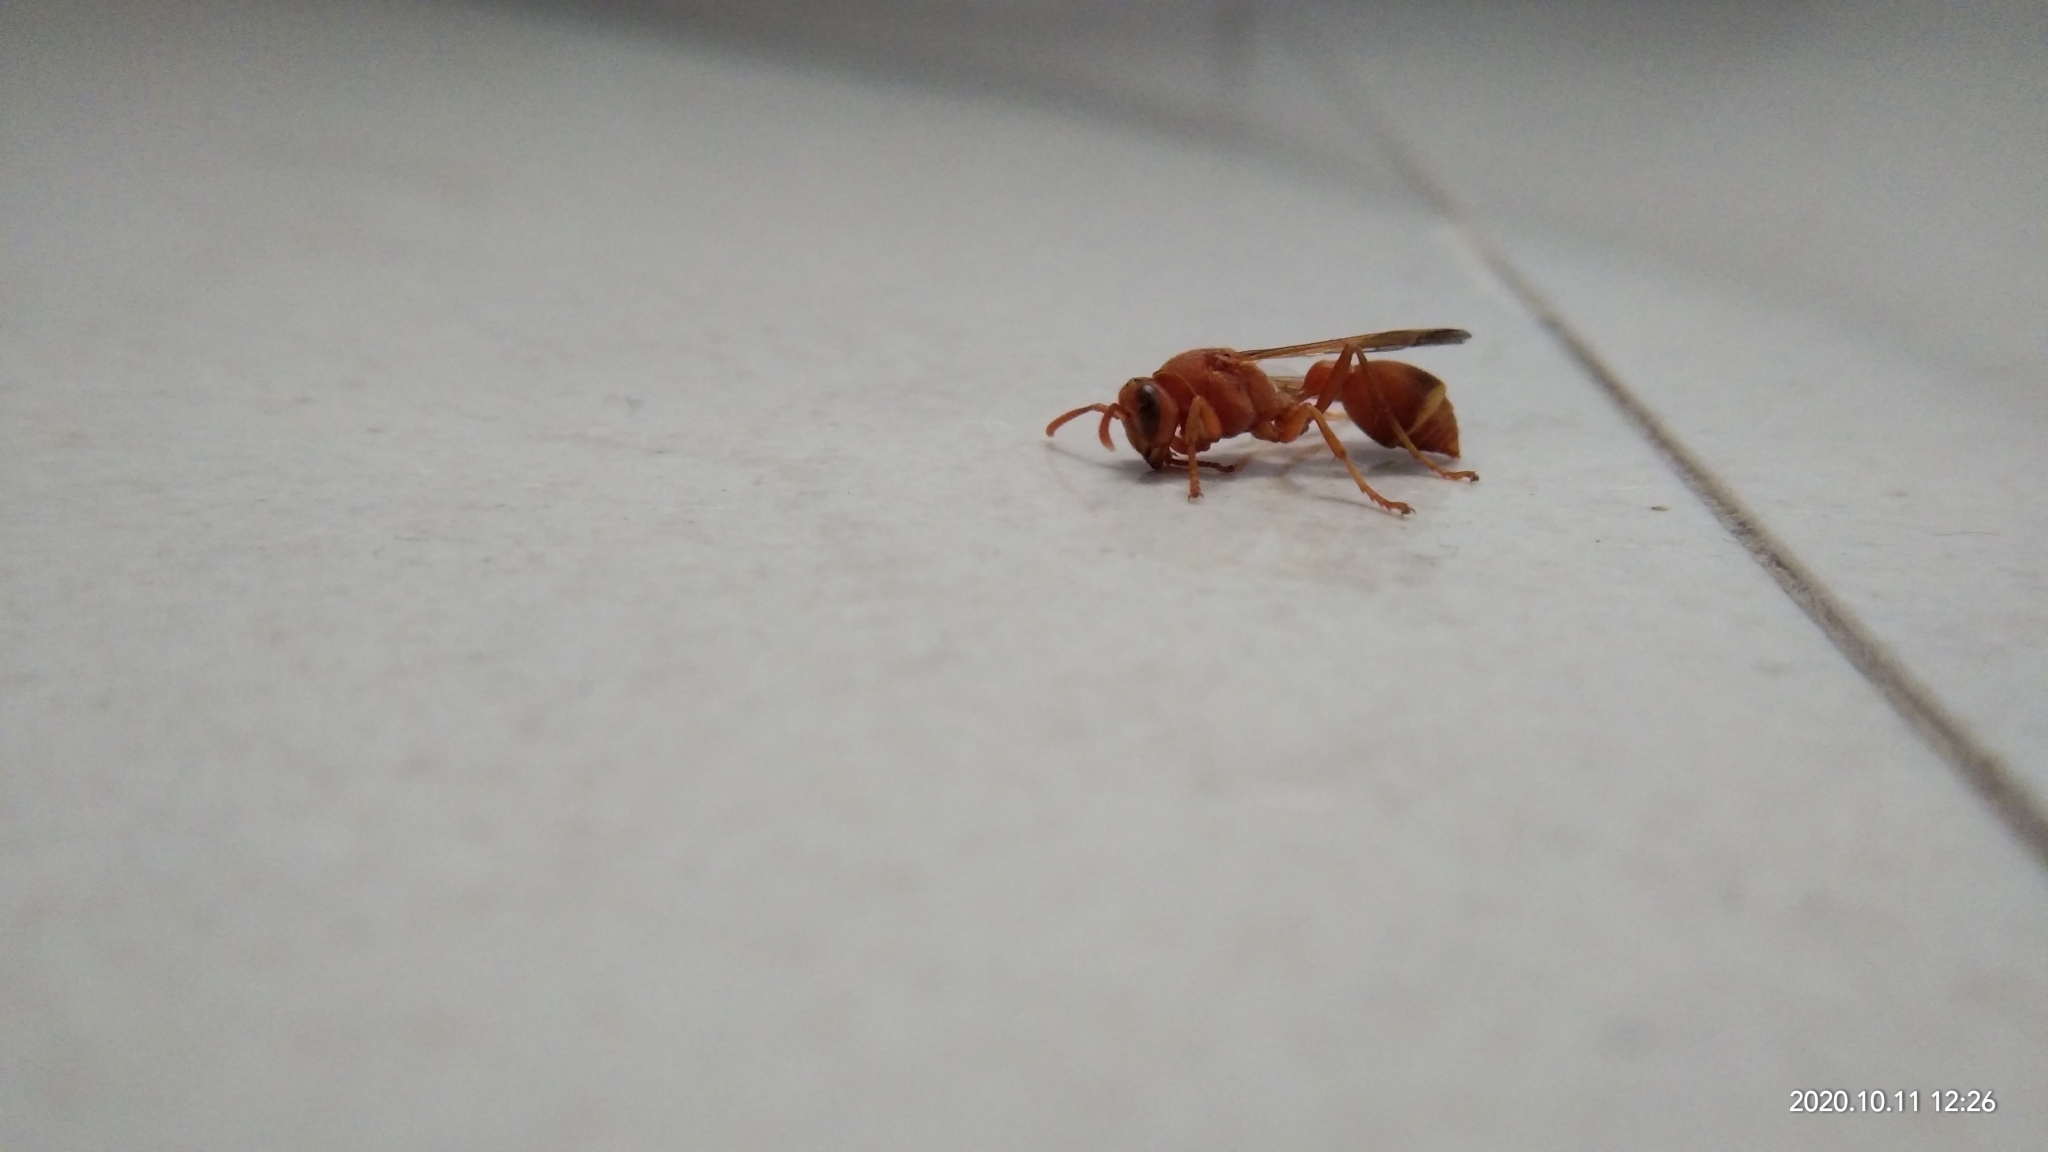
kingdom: Animalia
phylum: Arthropoda
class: Insecta
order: Hymenoptera
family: Vespidae
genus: Ropalidia
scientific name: Ropalidia marginata
